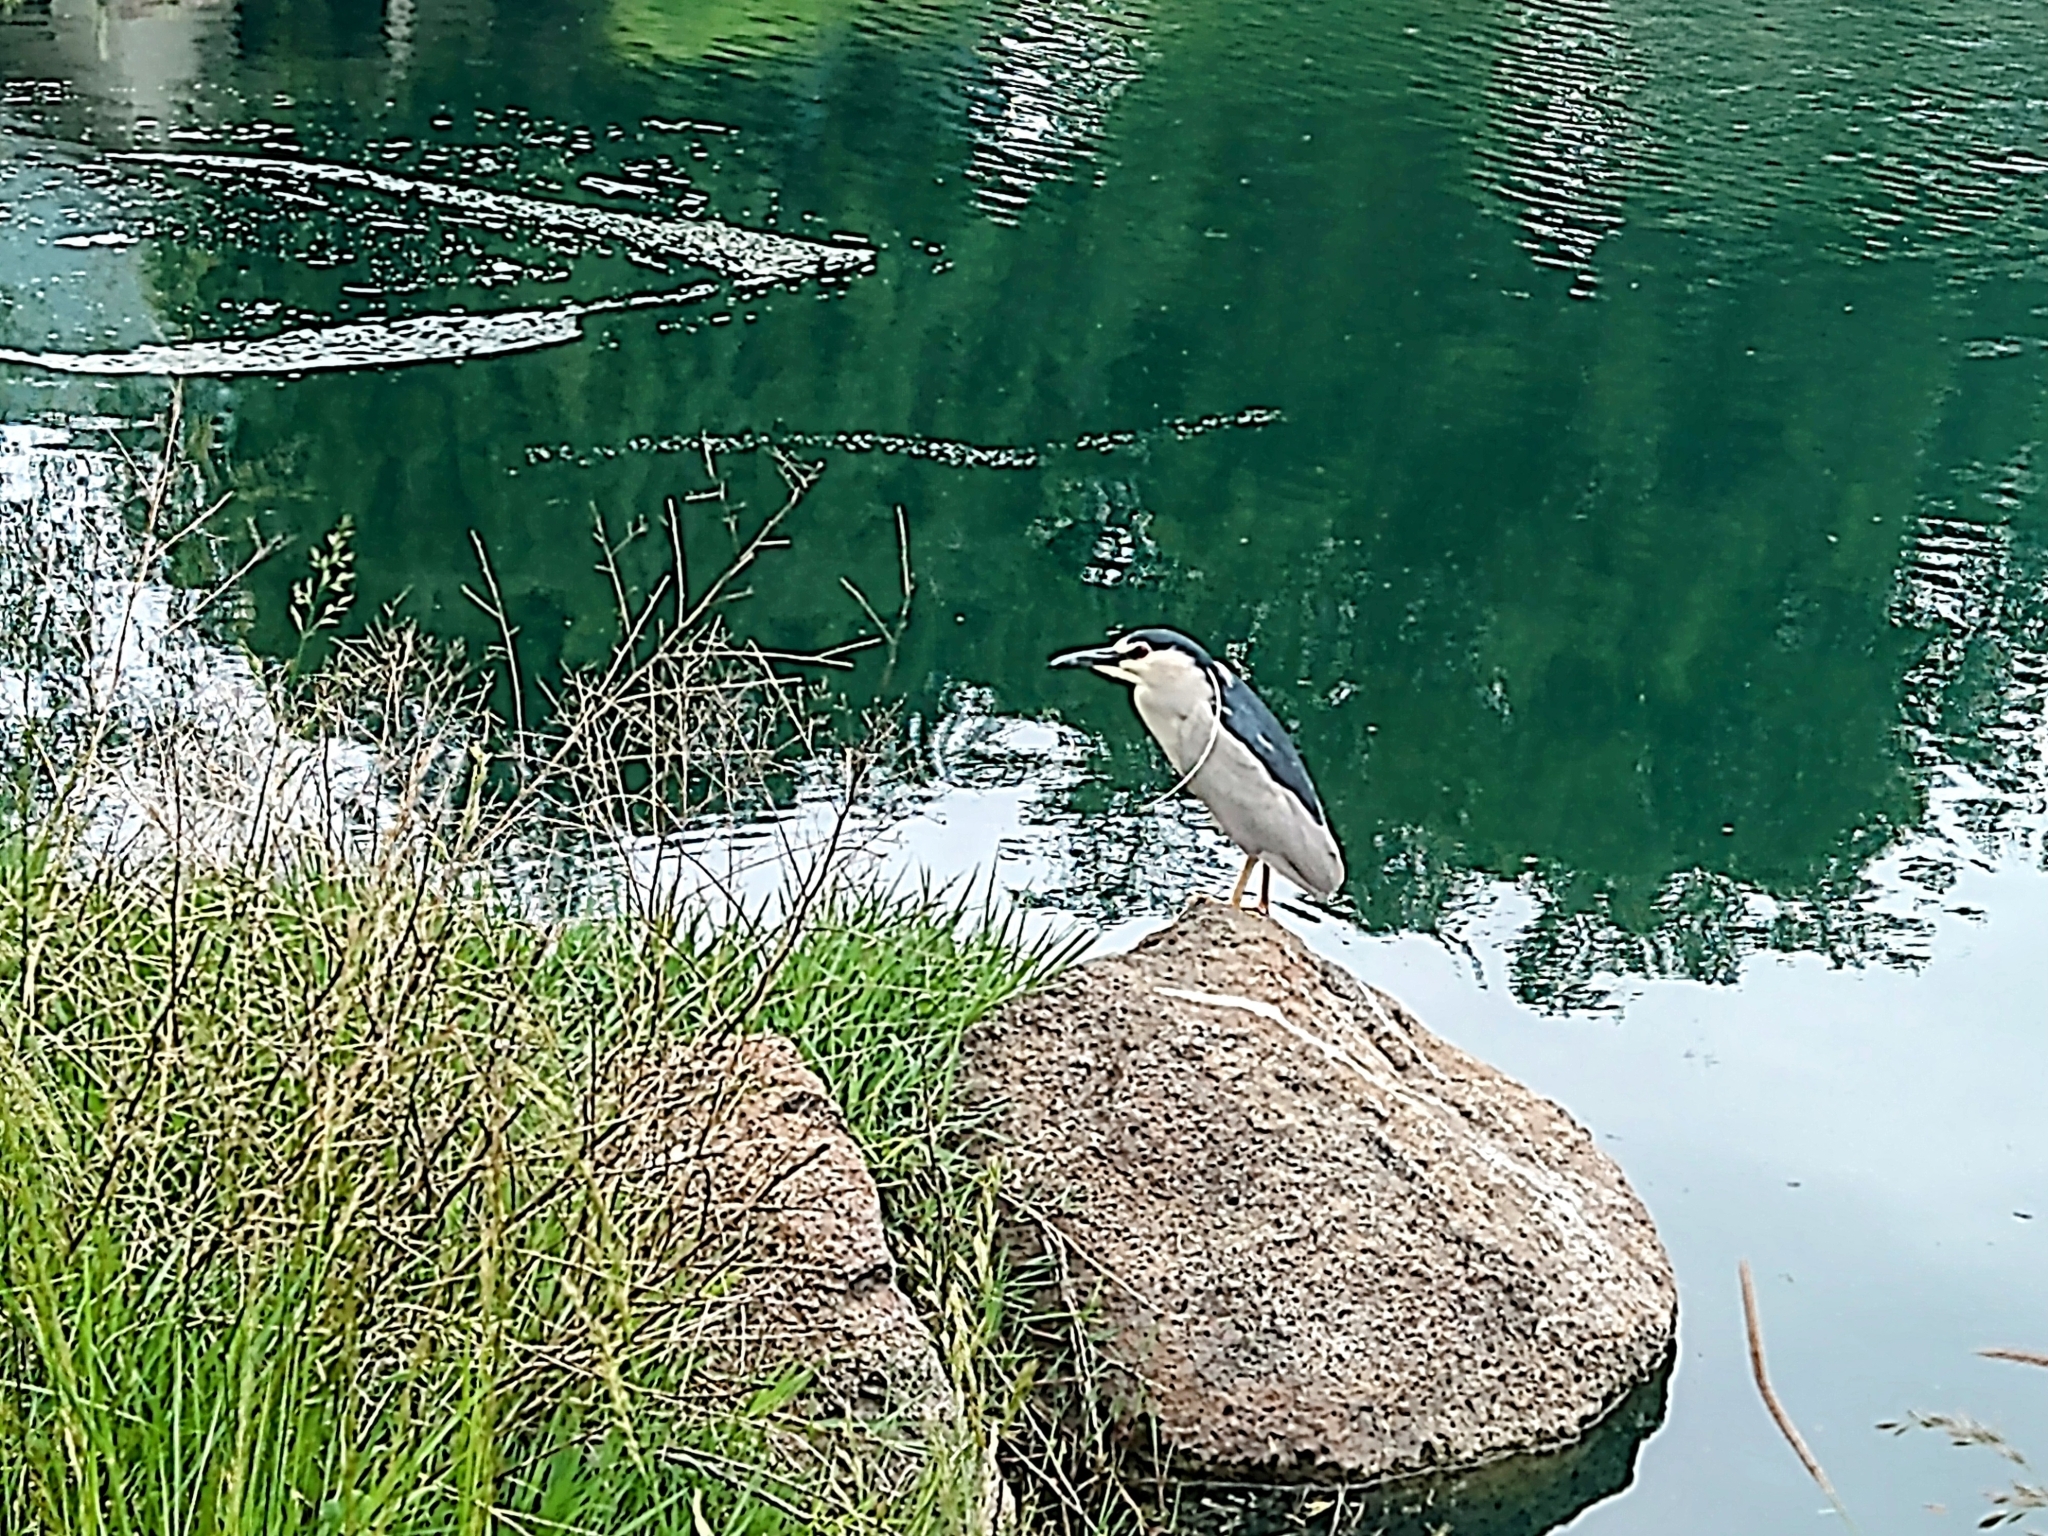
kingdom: Animalia
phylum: Chordata
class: Aves
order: Pelecaniformes
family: Ardeidae
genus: Nycticorax
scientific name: Nycticorax nycticorax
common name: Black-crowned night heron
